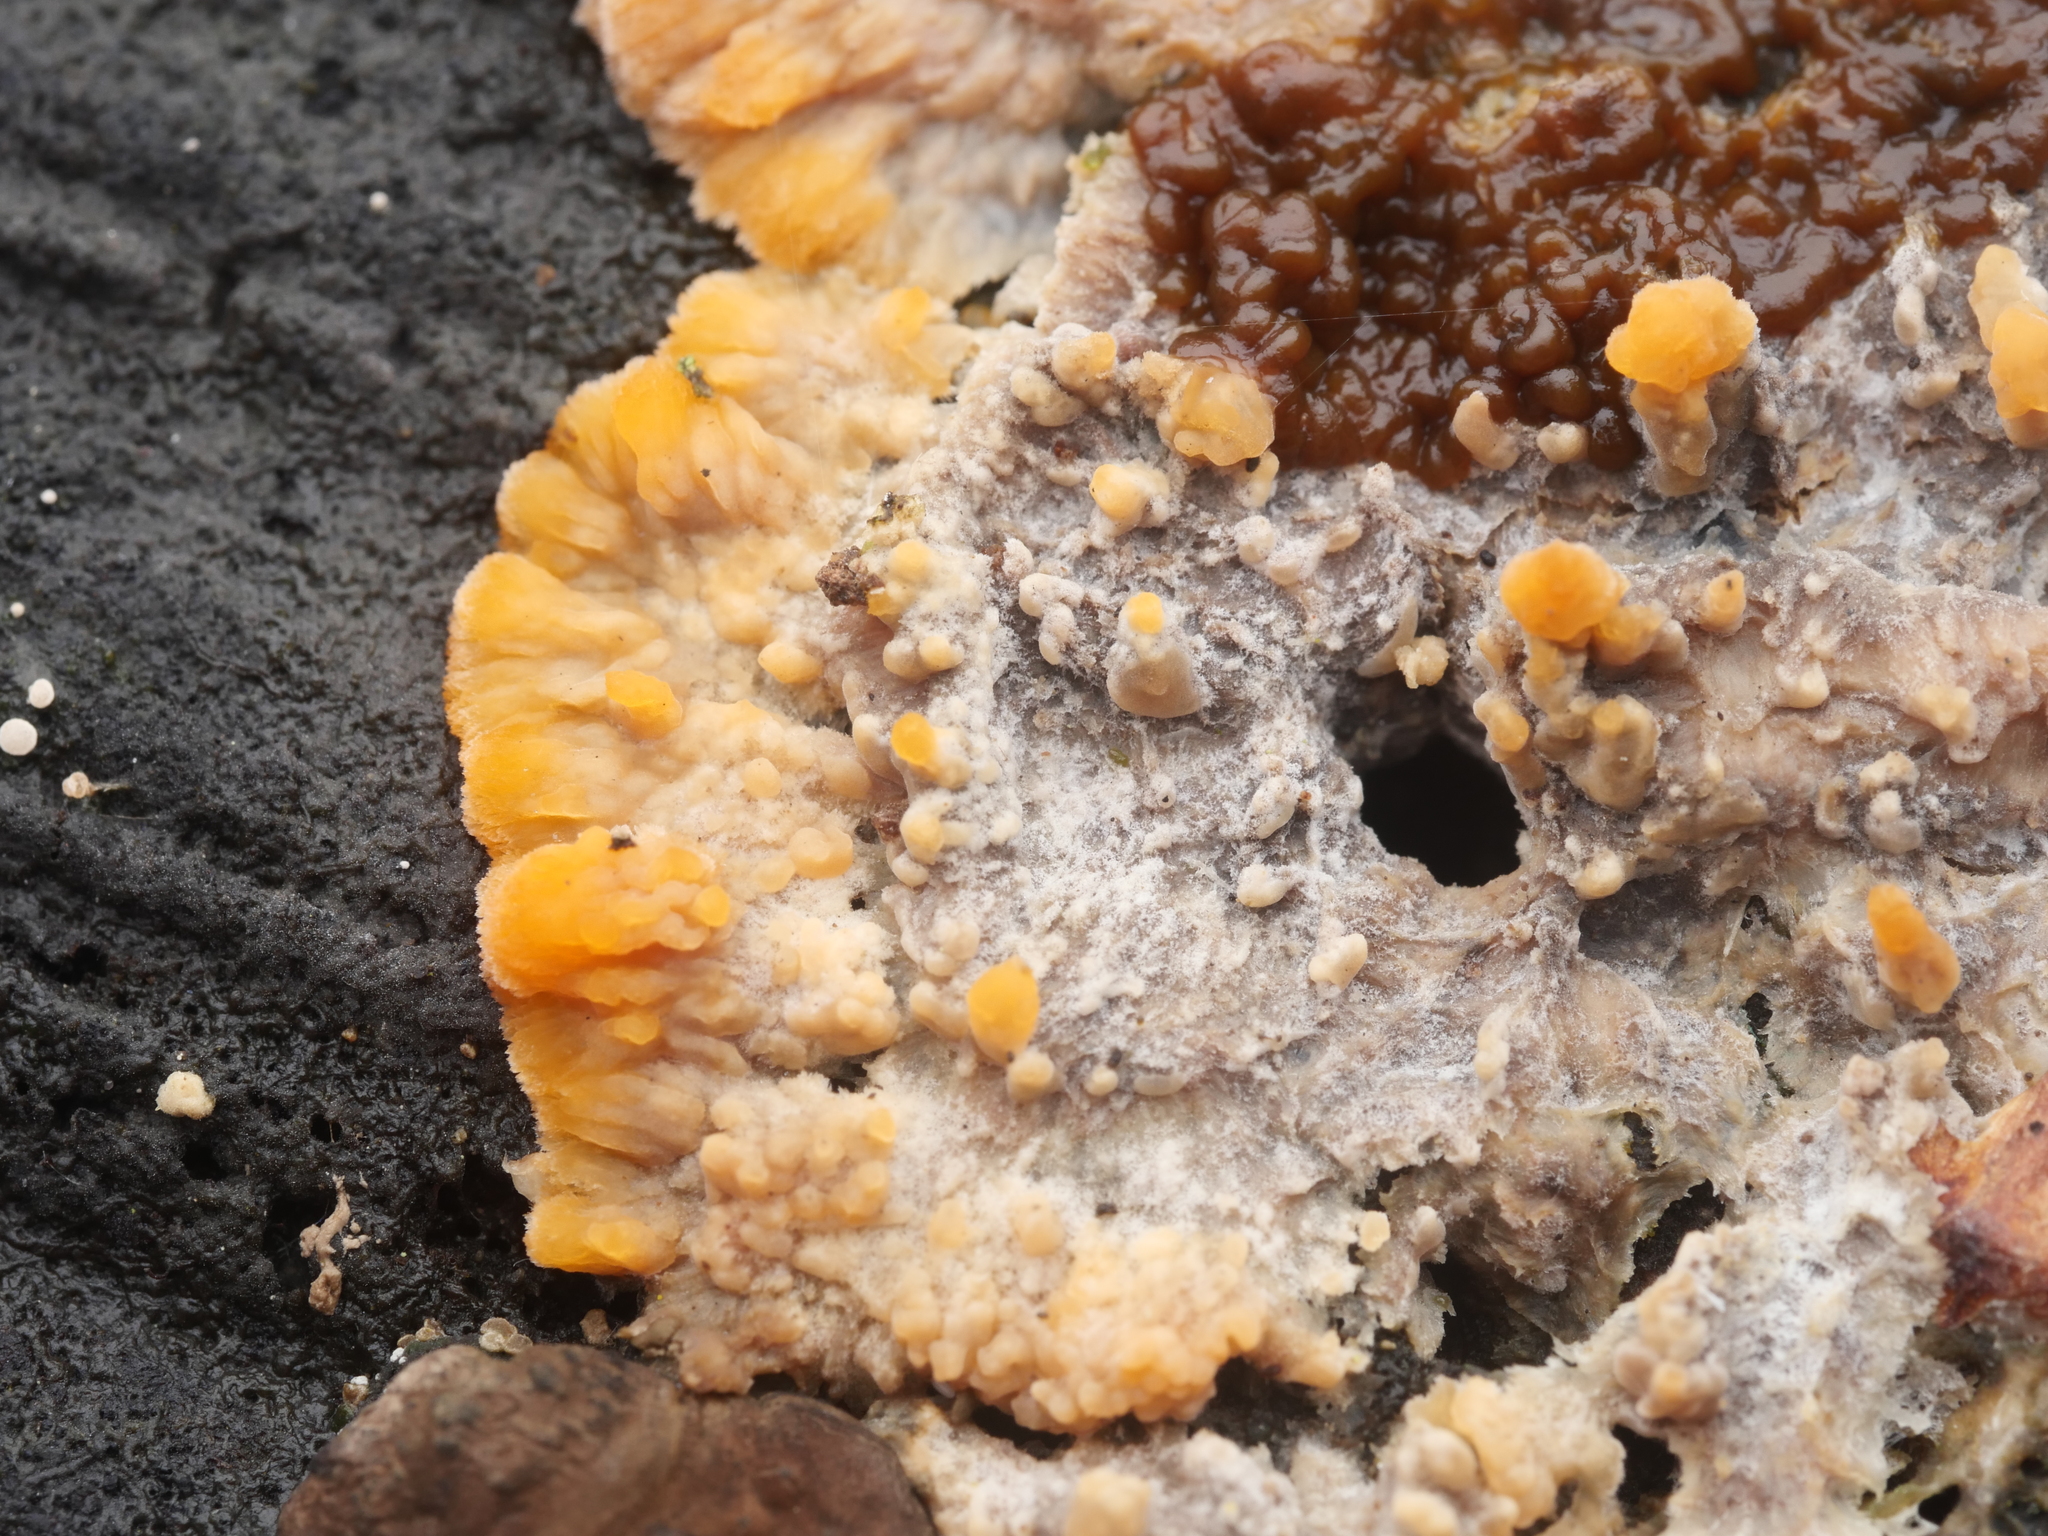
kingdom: Fungi
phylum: Basidiomycota
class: Agaricomycetes
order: Polyporales
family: Meruliaceae
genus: Phlebia
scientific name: Phlebia radiata
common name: Wrinkled crust
